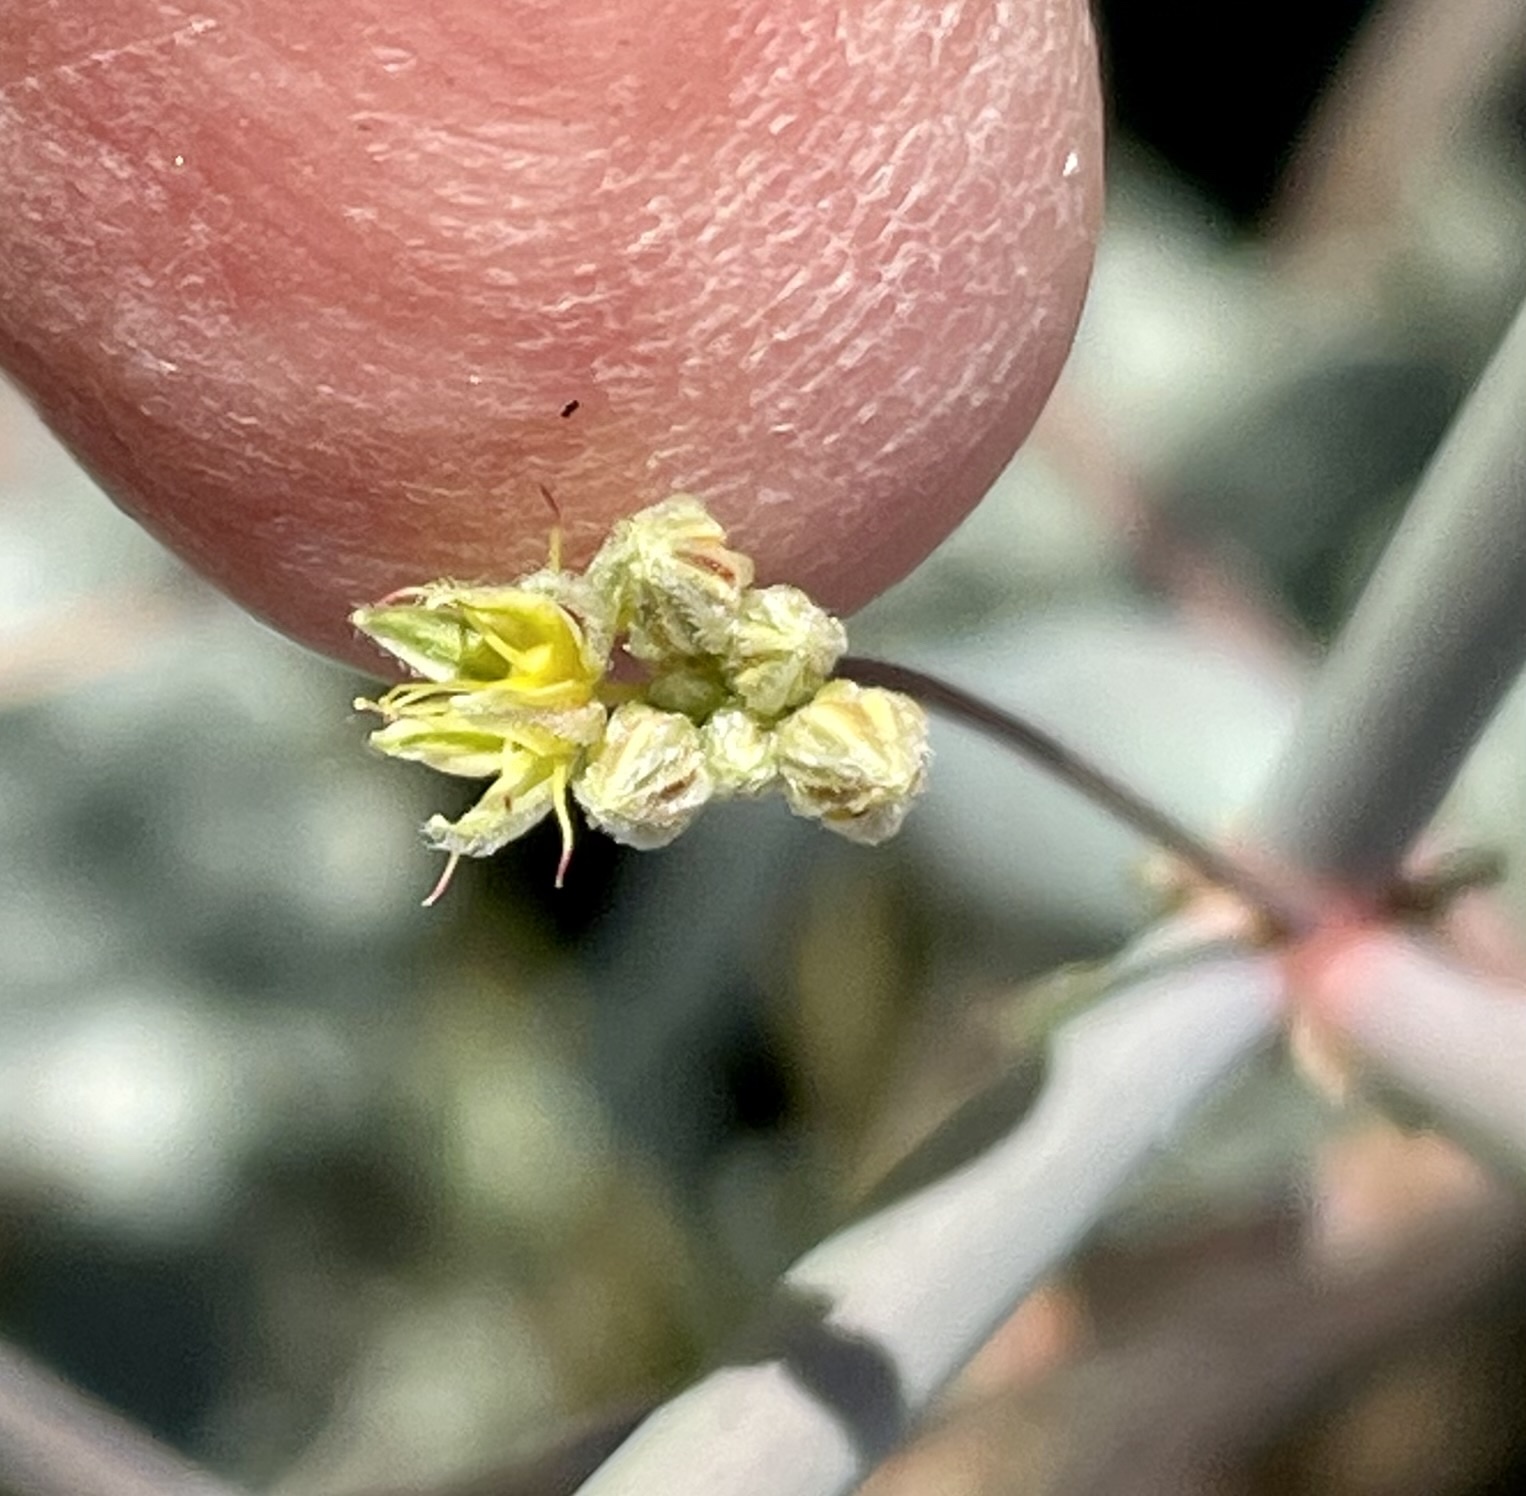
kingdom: Plantae
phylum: Tracheophyta
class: Magnoliopsida
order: Caryophyllales
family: Polygonaceae
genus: Eriogonum
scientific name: Eriogonum inflatum
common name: Desert trumpet
